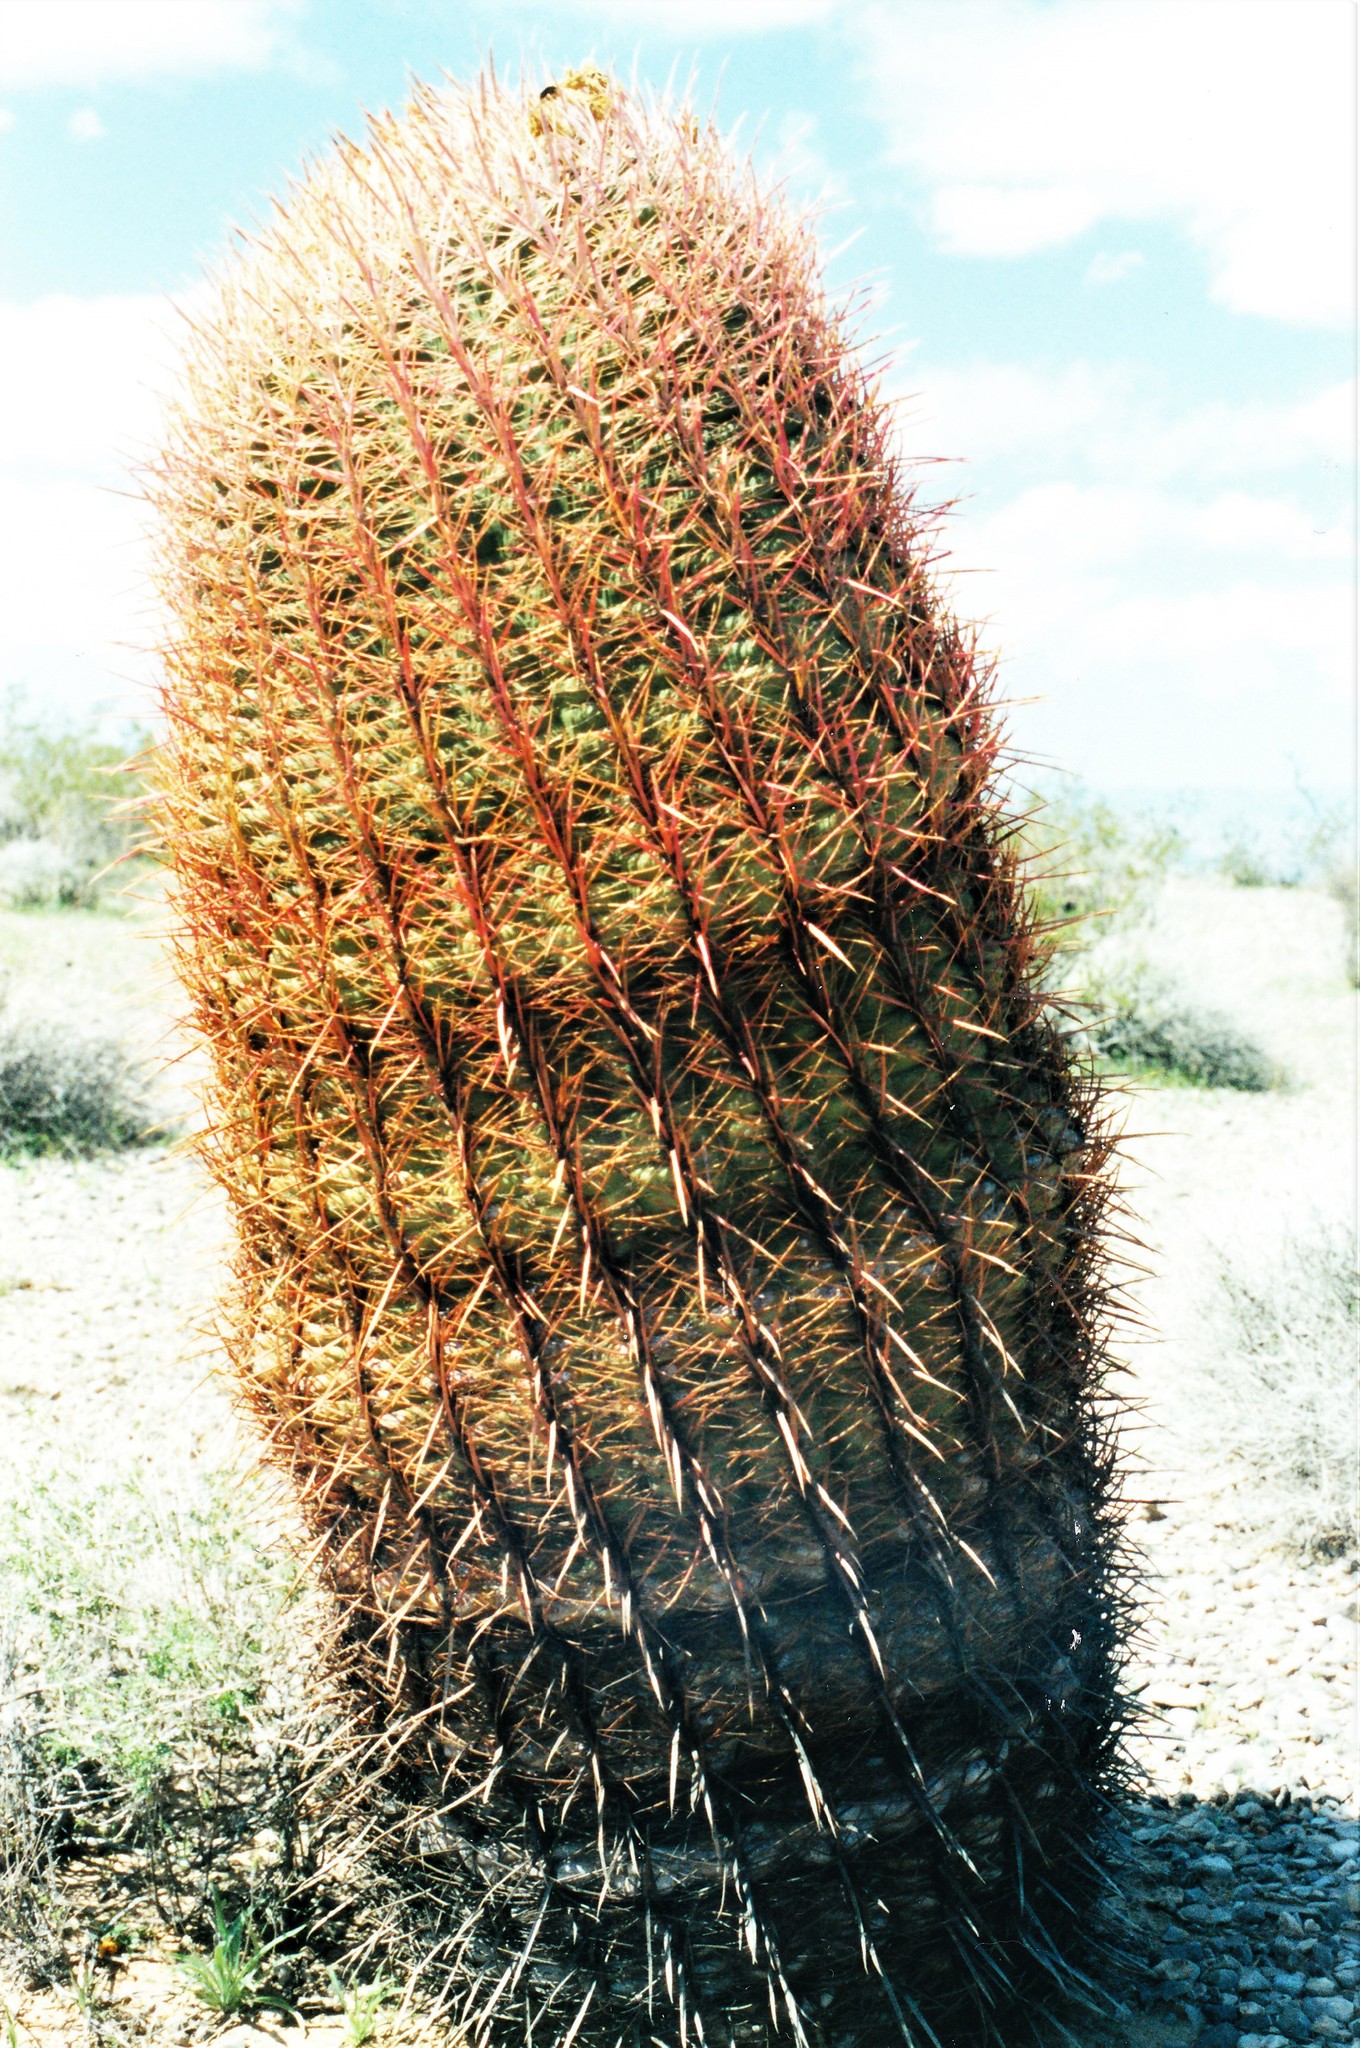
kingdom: Plantae
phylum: Tracheophyta
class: Magnoliopsida
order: Caryophyllales
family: Cactaceae
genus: Ferocactus
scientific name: Ferocactus cylindraceus
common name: California barrel cactus
